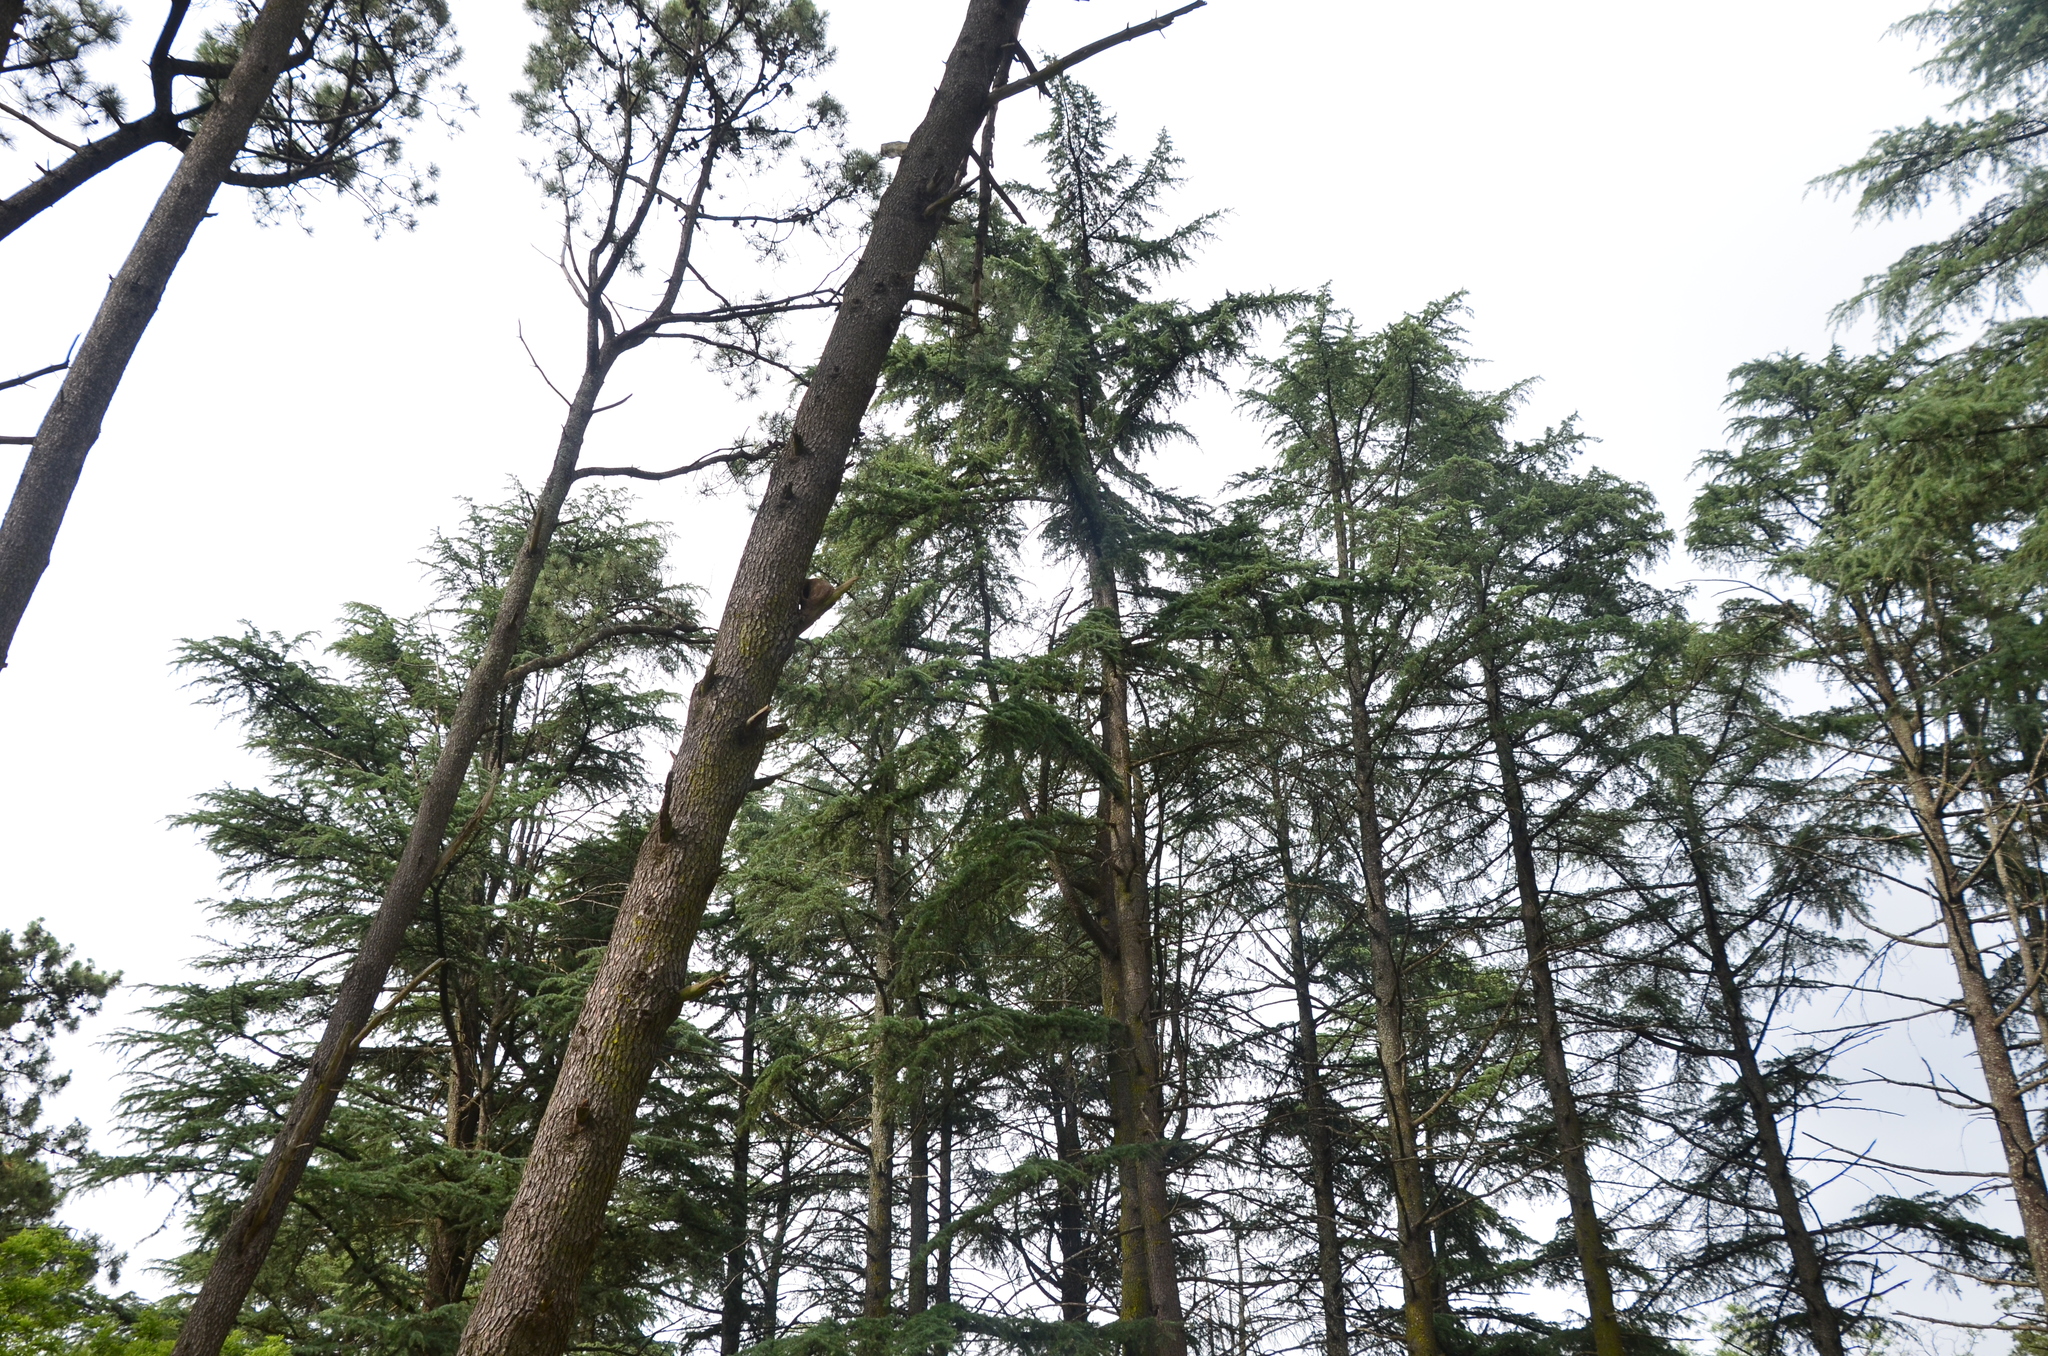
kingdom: Animalia
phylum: Chordata
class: Aves
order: Passeriformes
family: Furnariidae
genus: Furnarius
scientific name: Furnarius rufus
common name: Rufous hornero
